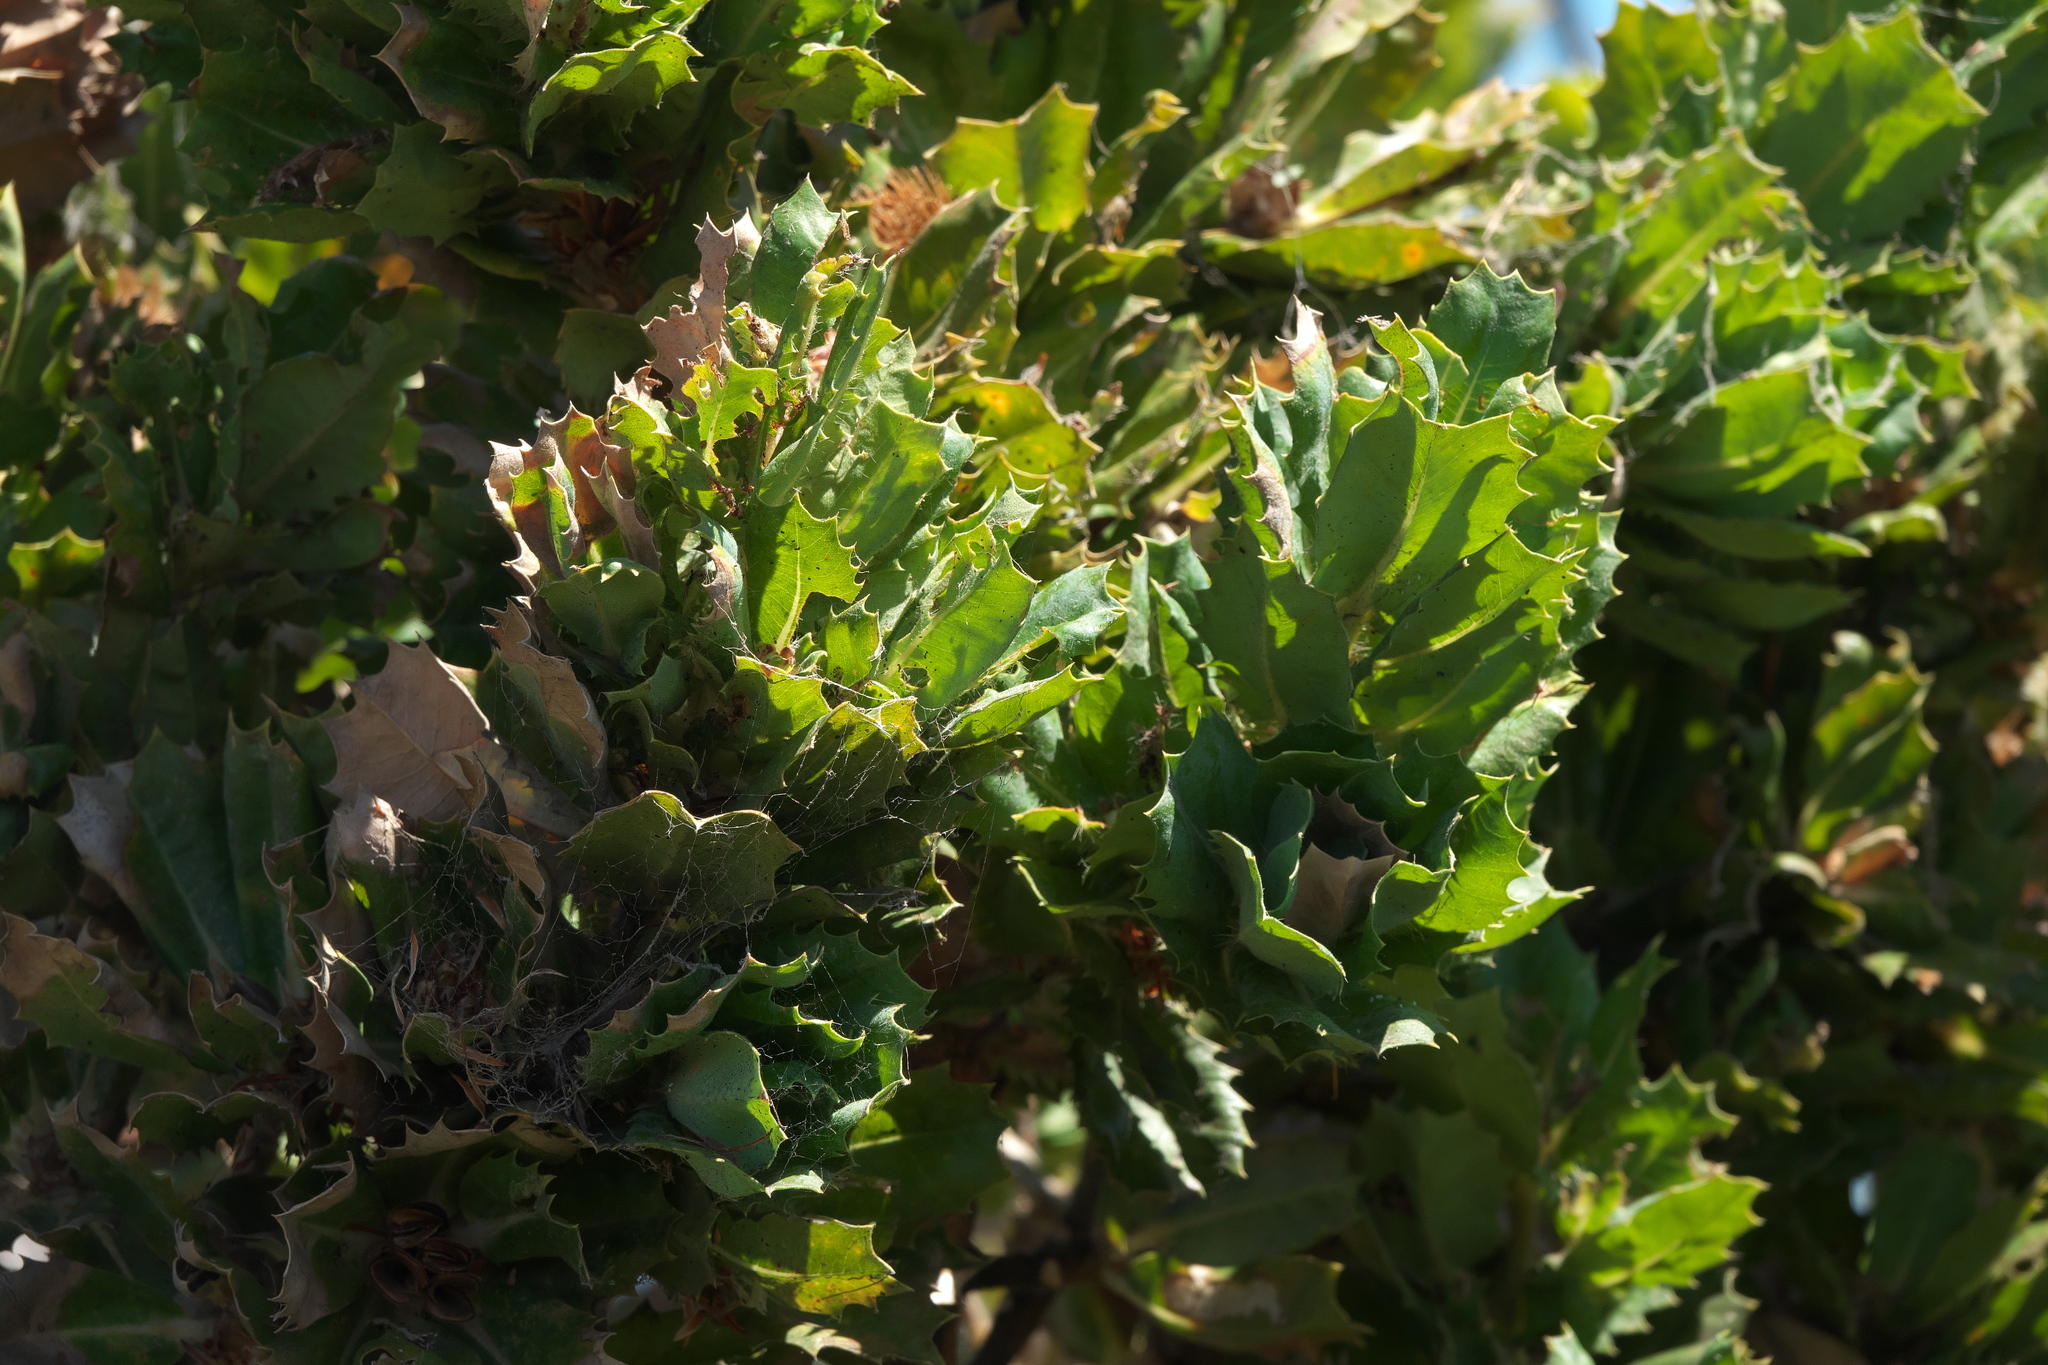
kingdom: Plantae
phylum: Tracheophyta
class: Magnoliopsida
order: Proteales
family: Proteaceae
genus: Banksia
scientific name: Banksia sessilis
